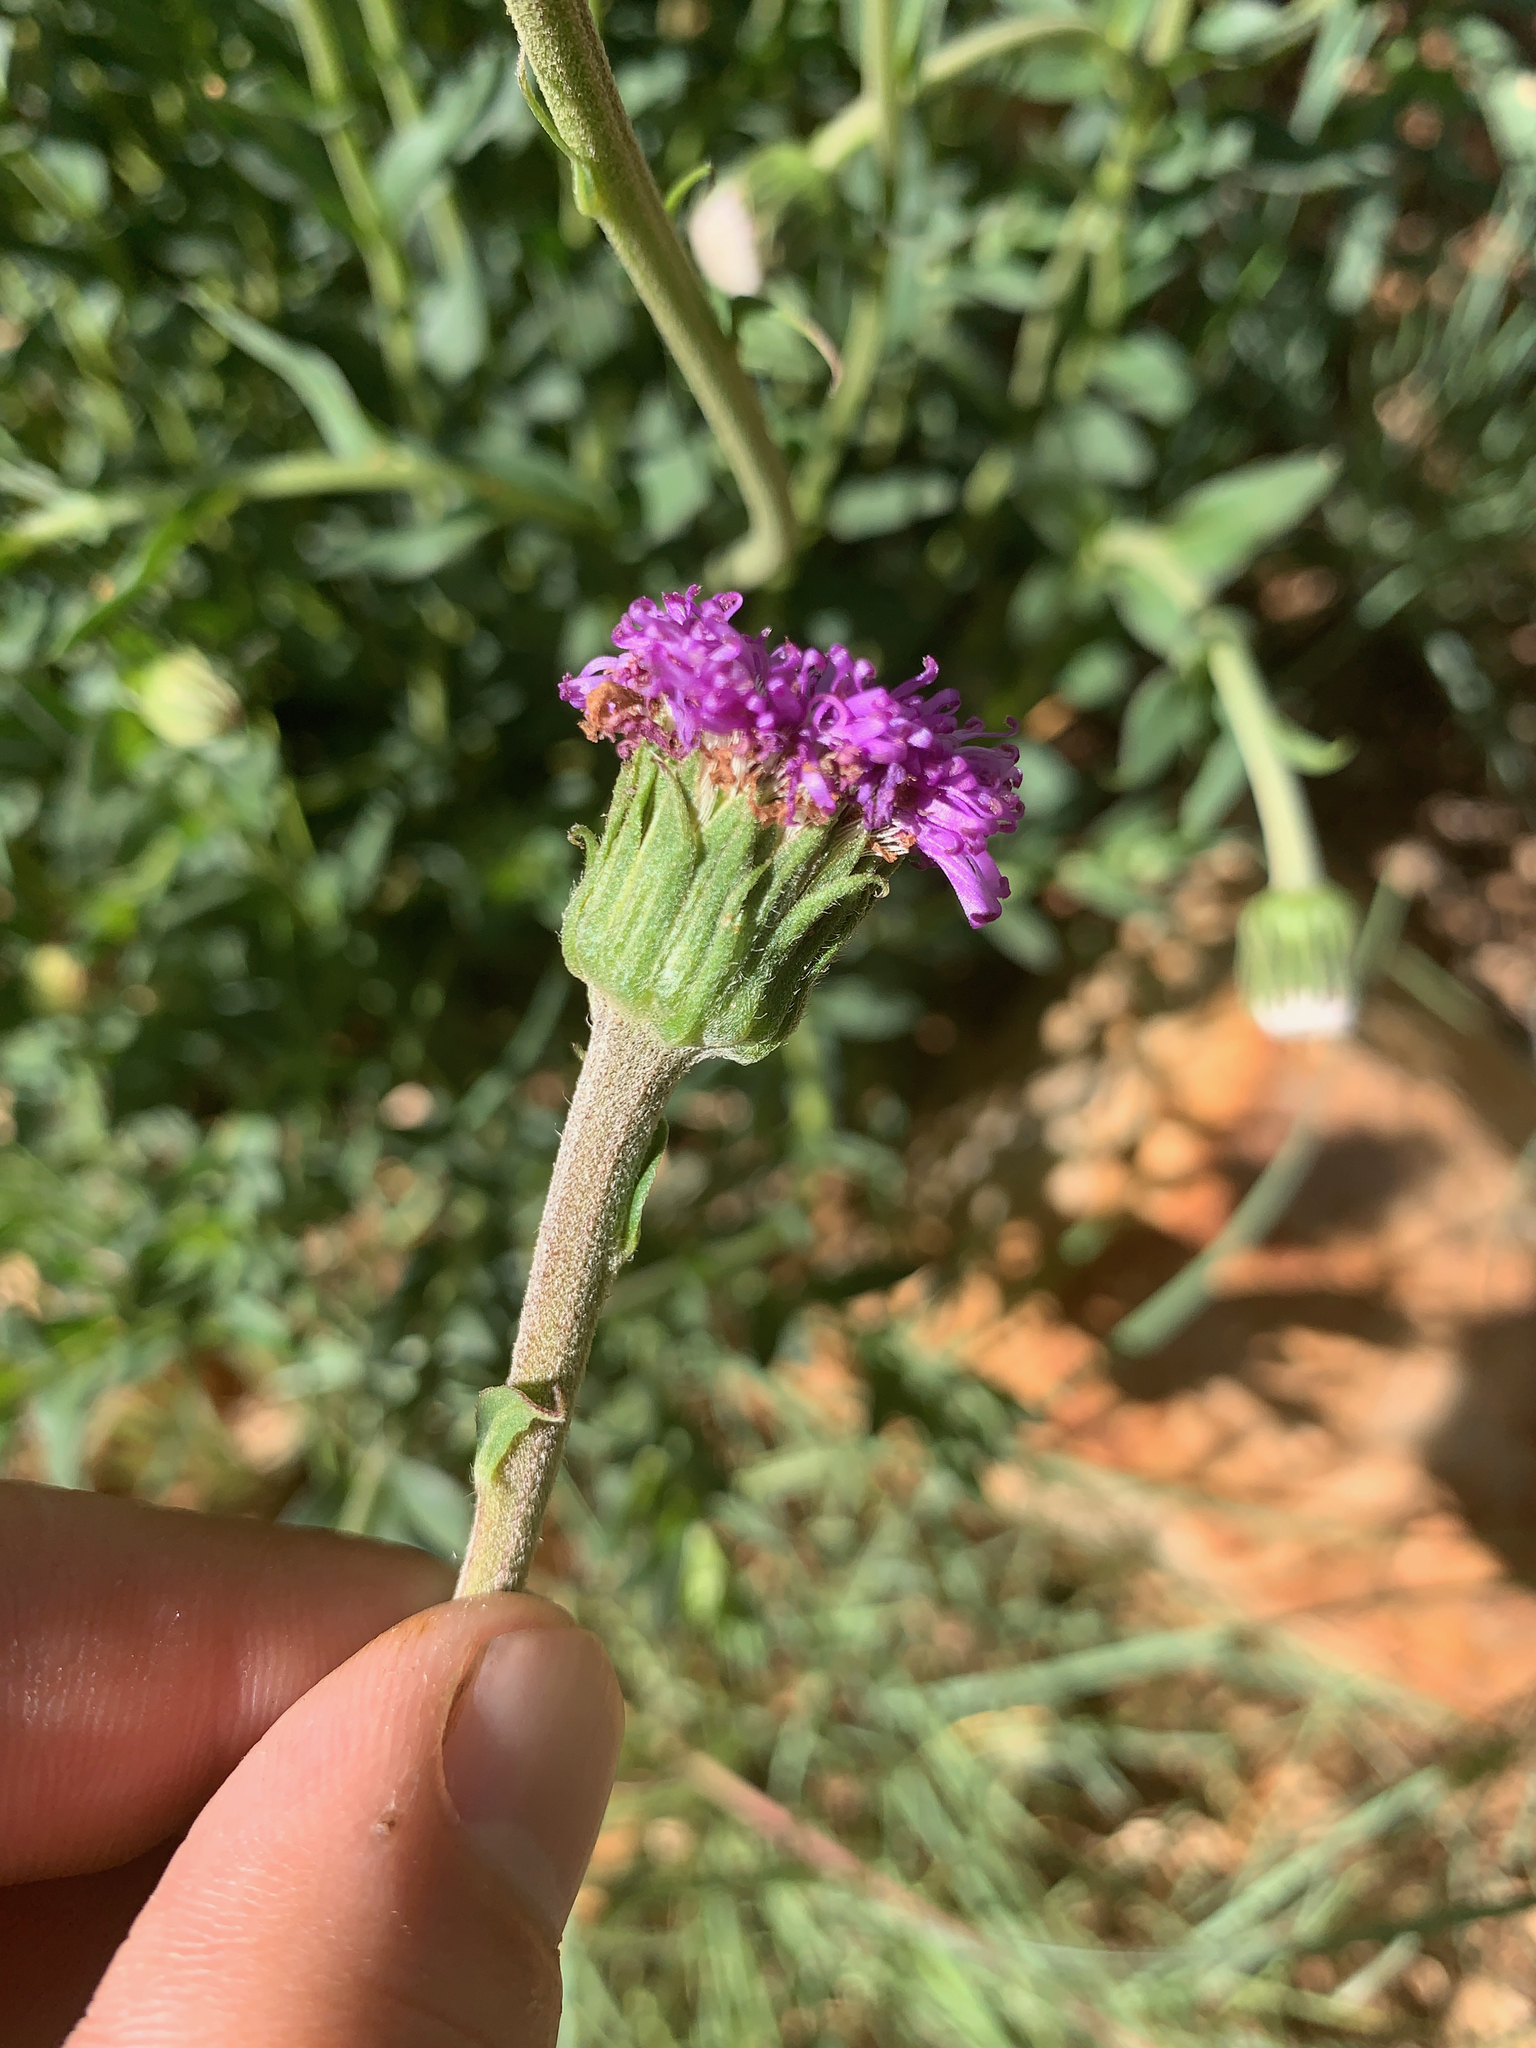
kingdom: Plantae
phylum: Tracheophyta
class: Magnoliopsida
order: Asterales
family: Asteraceae
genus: Pseudopegolettia
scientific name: Pseudopegolettia tenella
